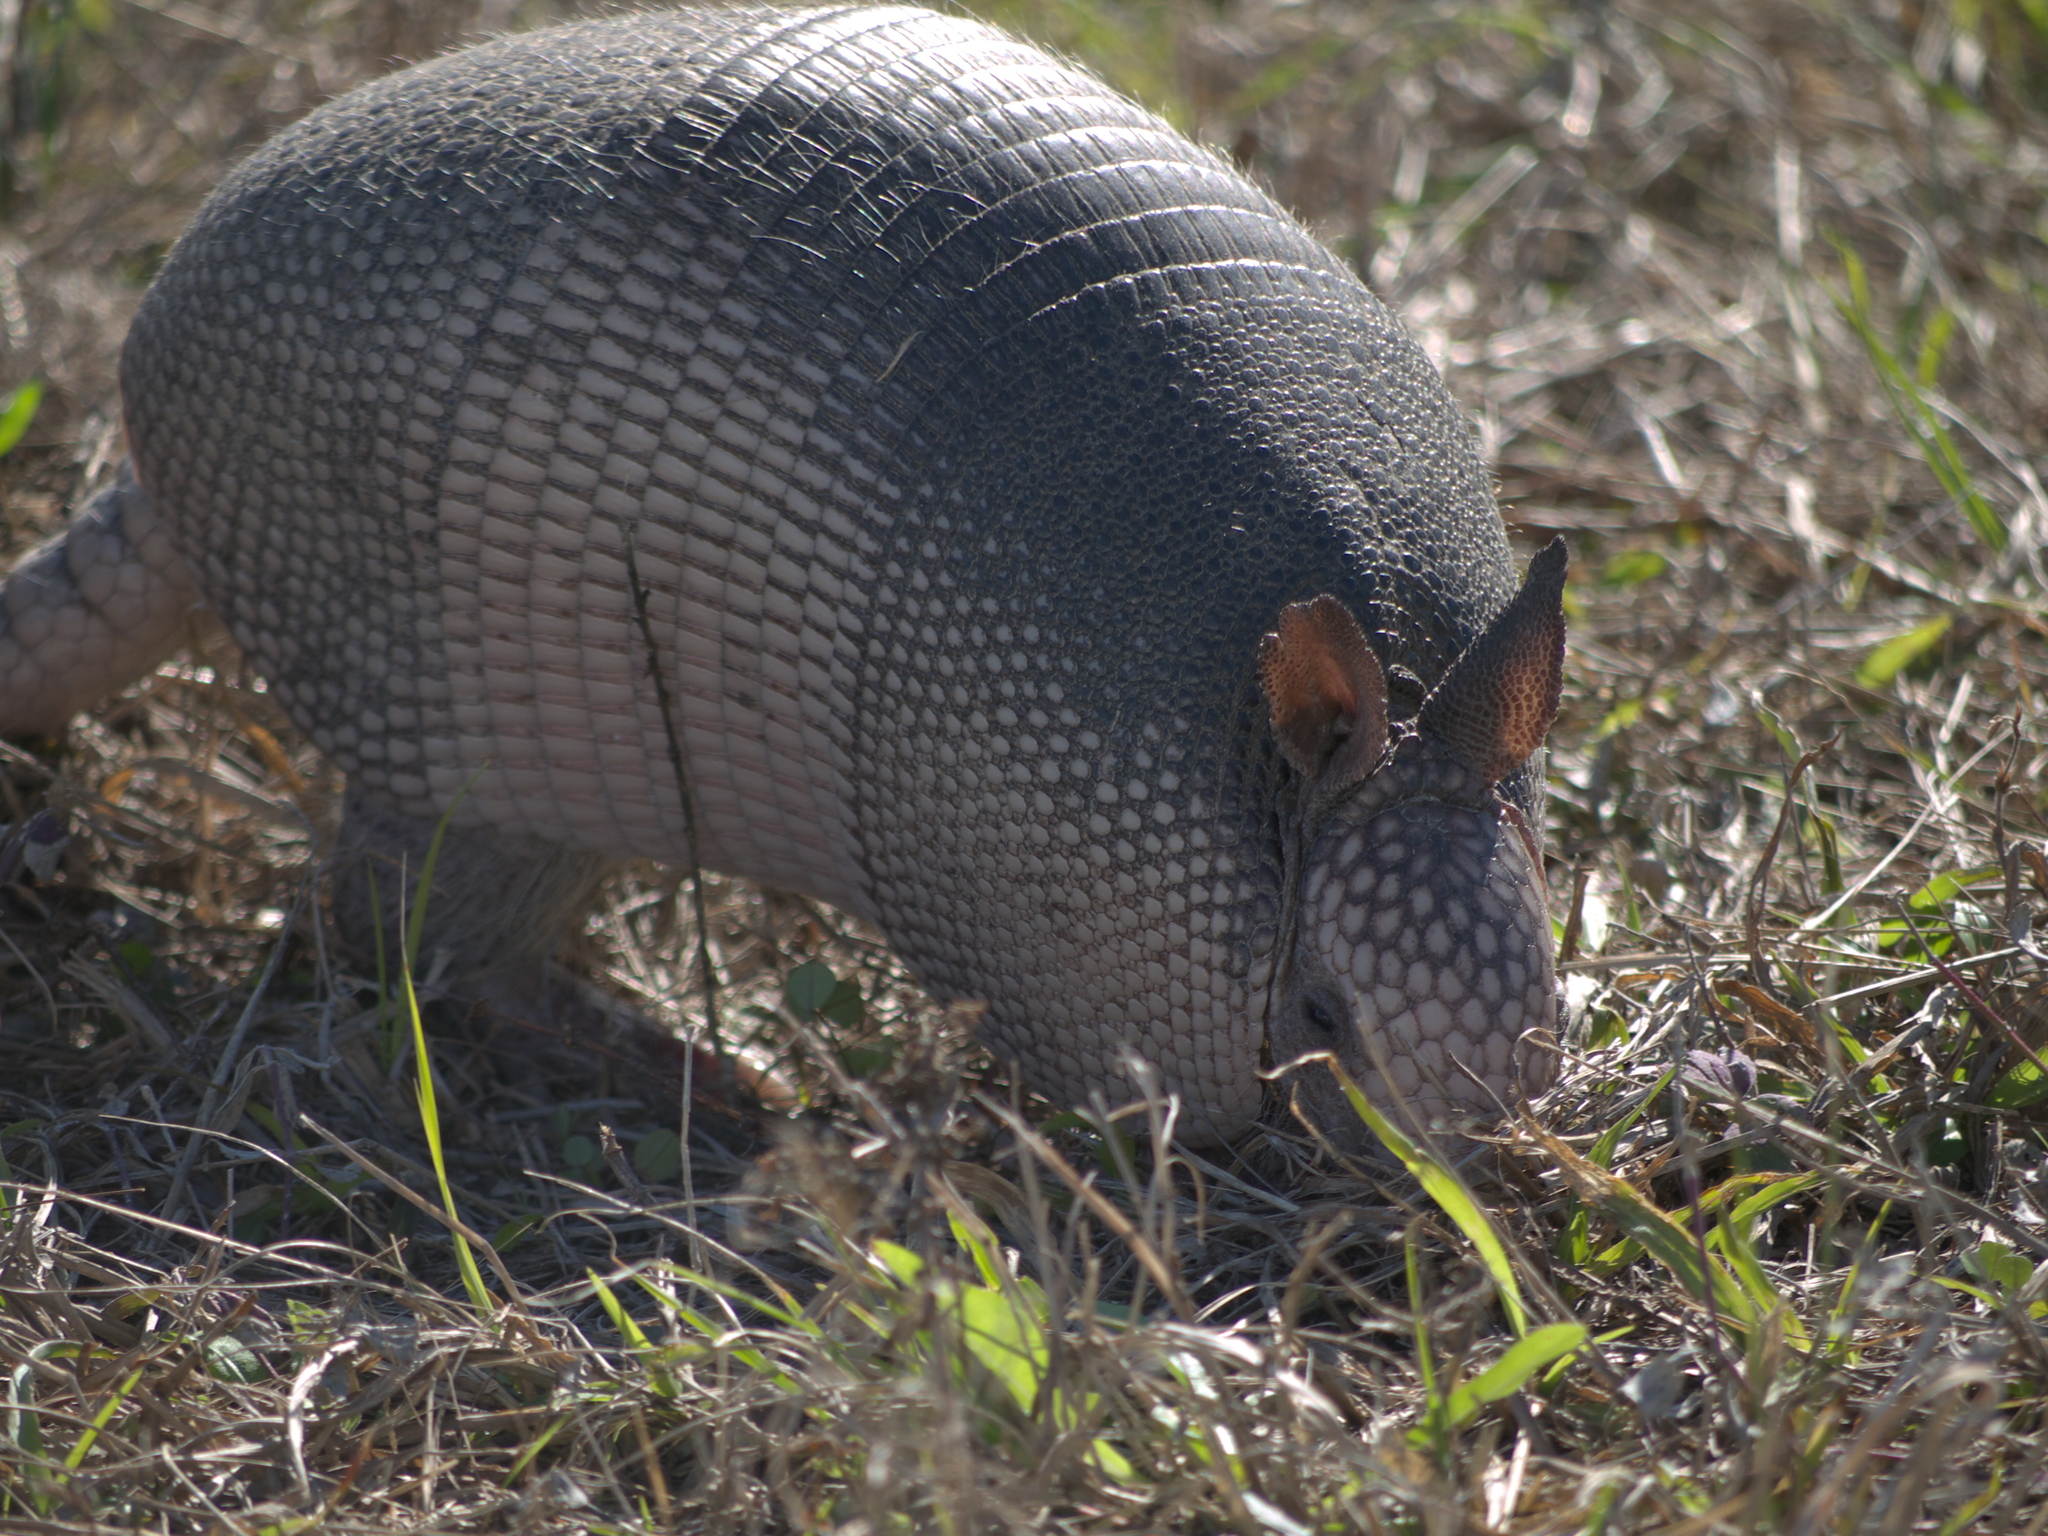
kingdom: Animalia
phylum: Chordata
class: Mammalia
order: Cingulata
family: Dasypodidae
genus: Dasypus
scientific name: Dasypus novemcinctus
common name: Nine-banded armadillo
